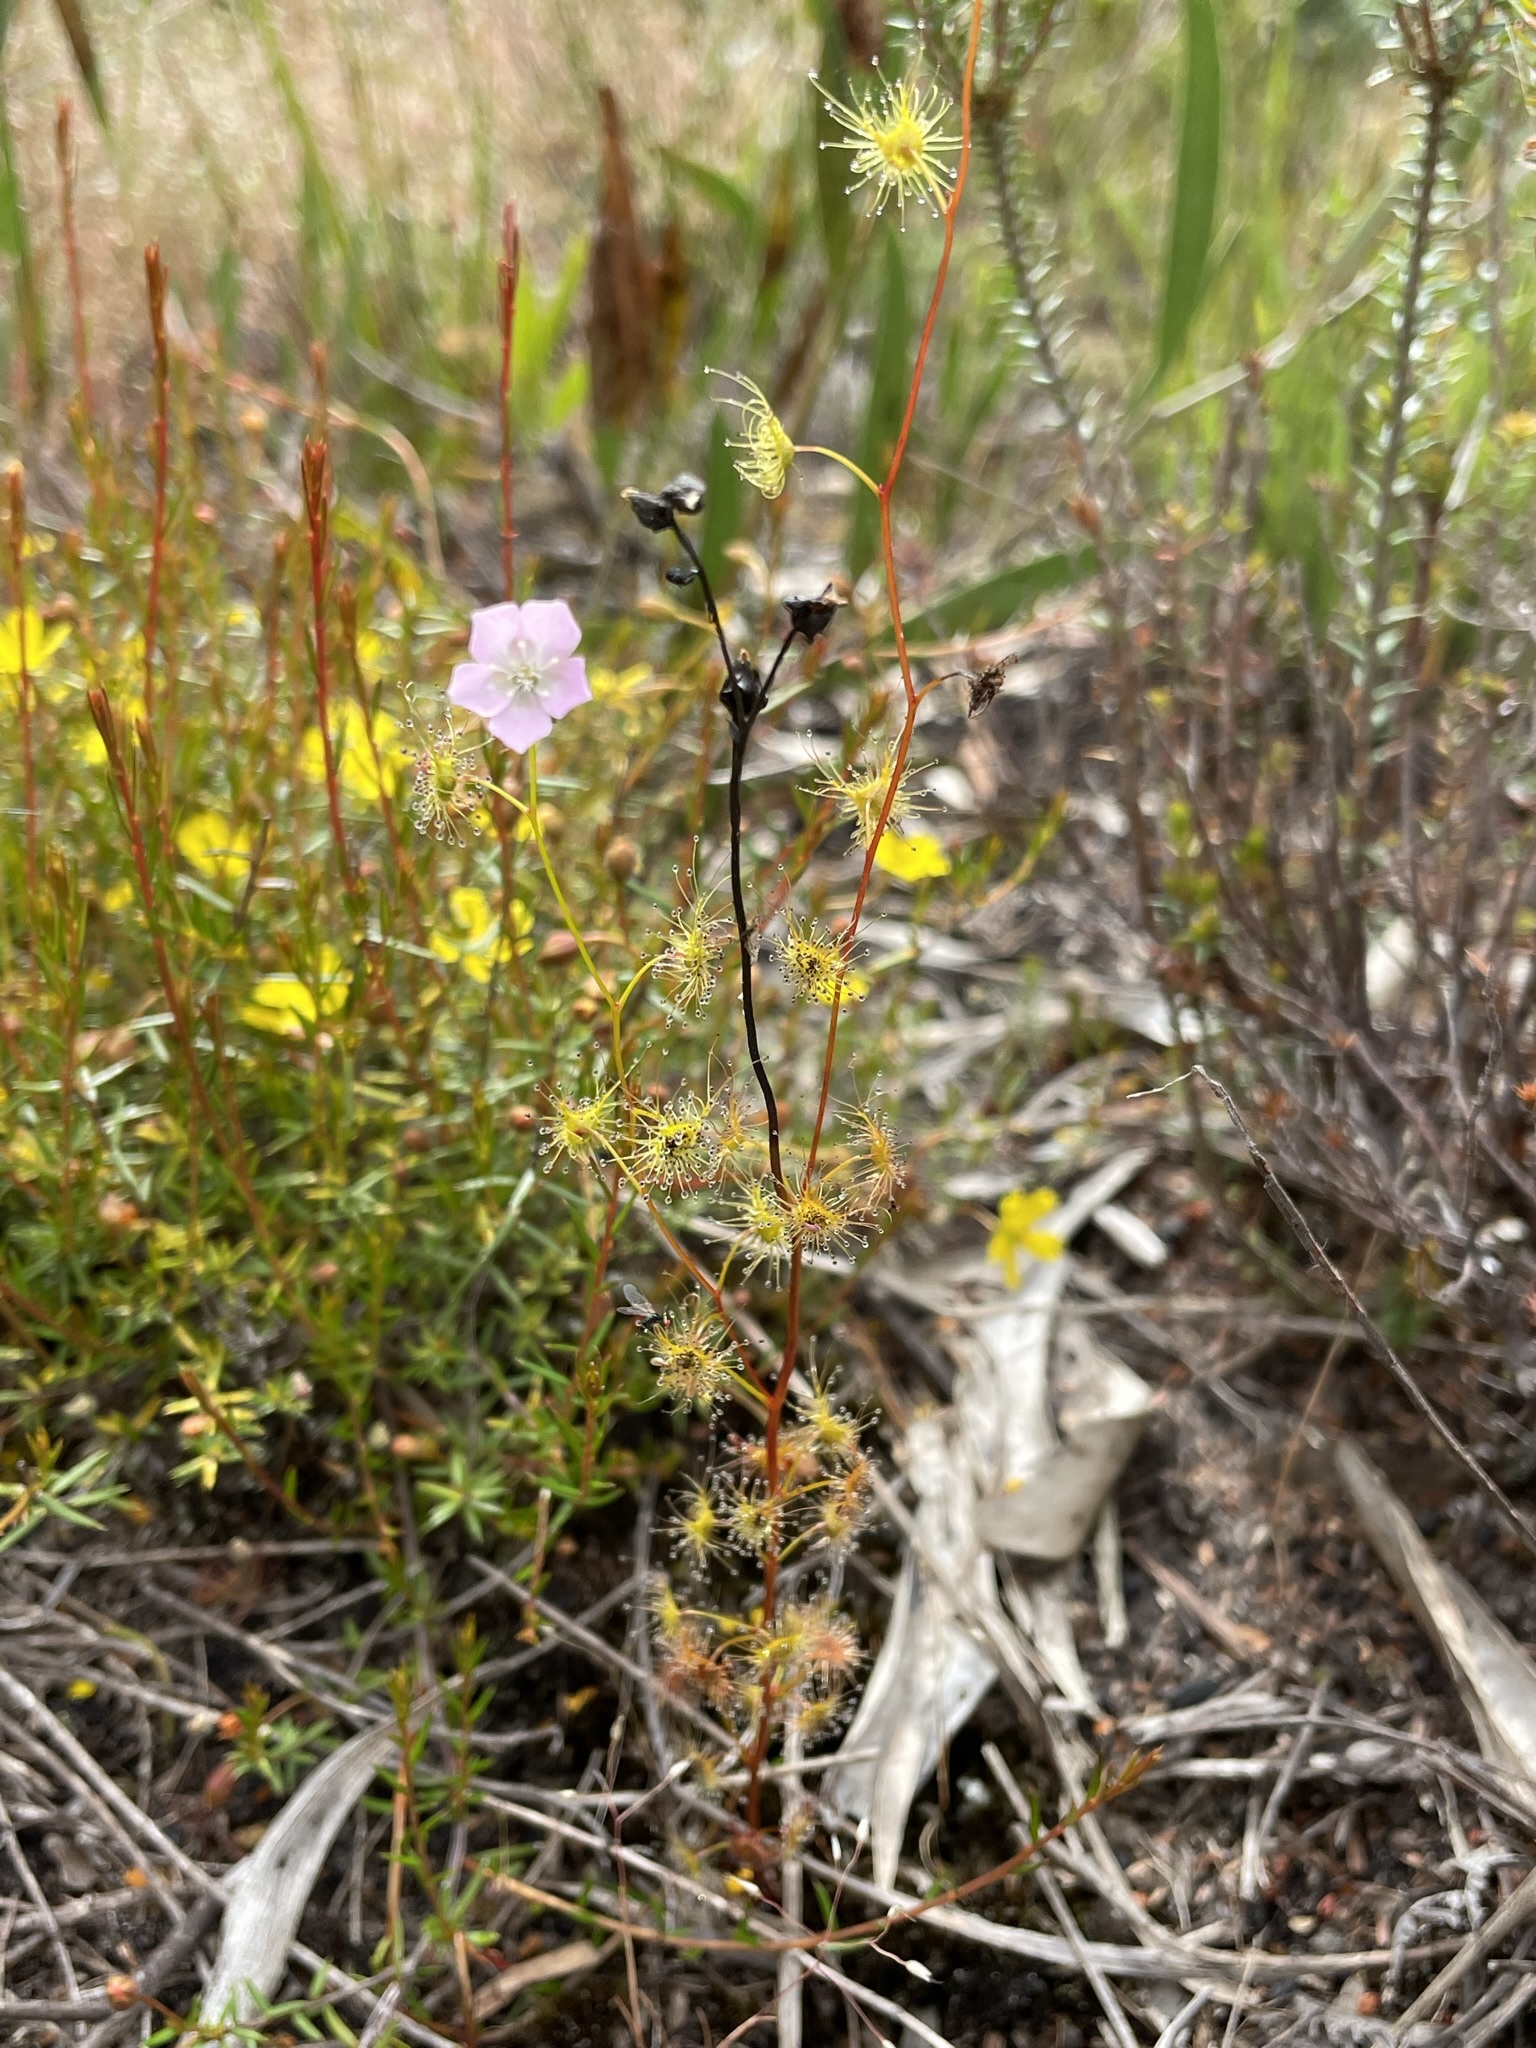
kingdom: Plantae
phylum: Tracheophyta
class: Magnoliopsida
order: Caryophyllales
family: Droseraceae
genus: Drosera
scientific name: Drosera peltata
